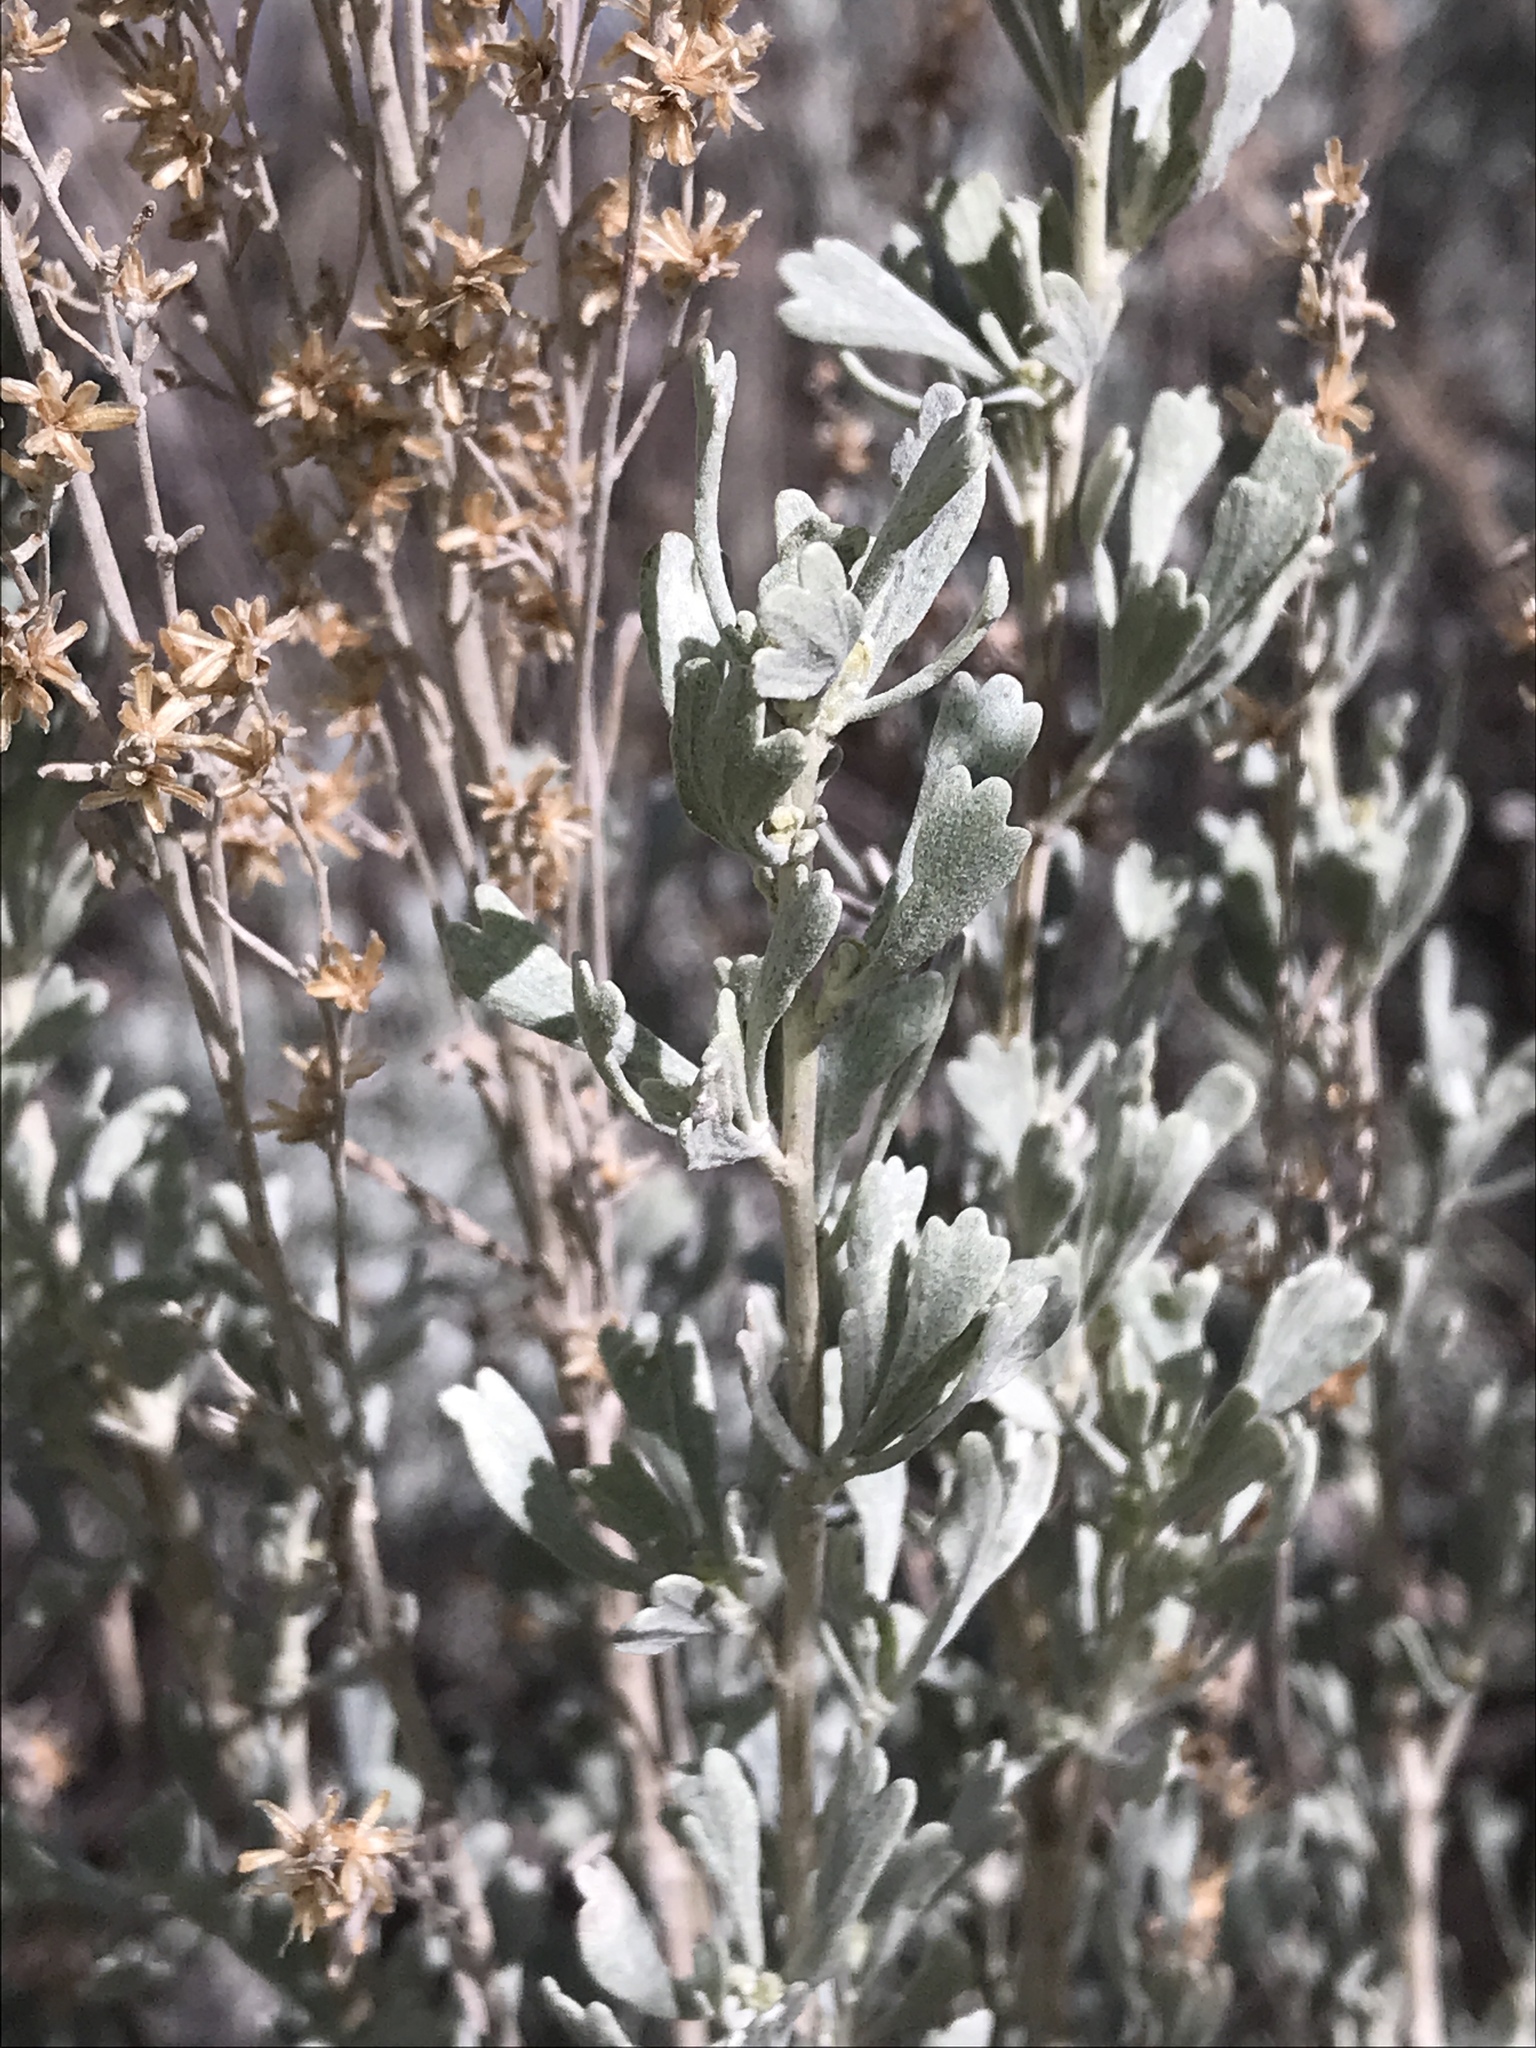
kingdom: Plantae
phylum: Tracheophyta
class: Magnoliopsida
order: Asterales
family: Asteraceae
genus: Artemisia
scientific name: Artemisia tridentata
